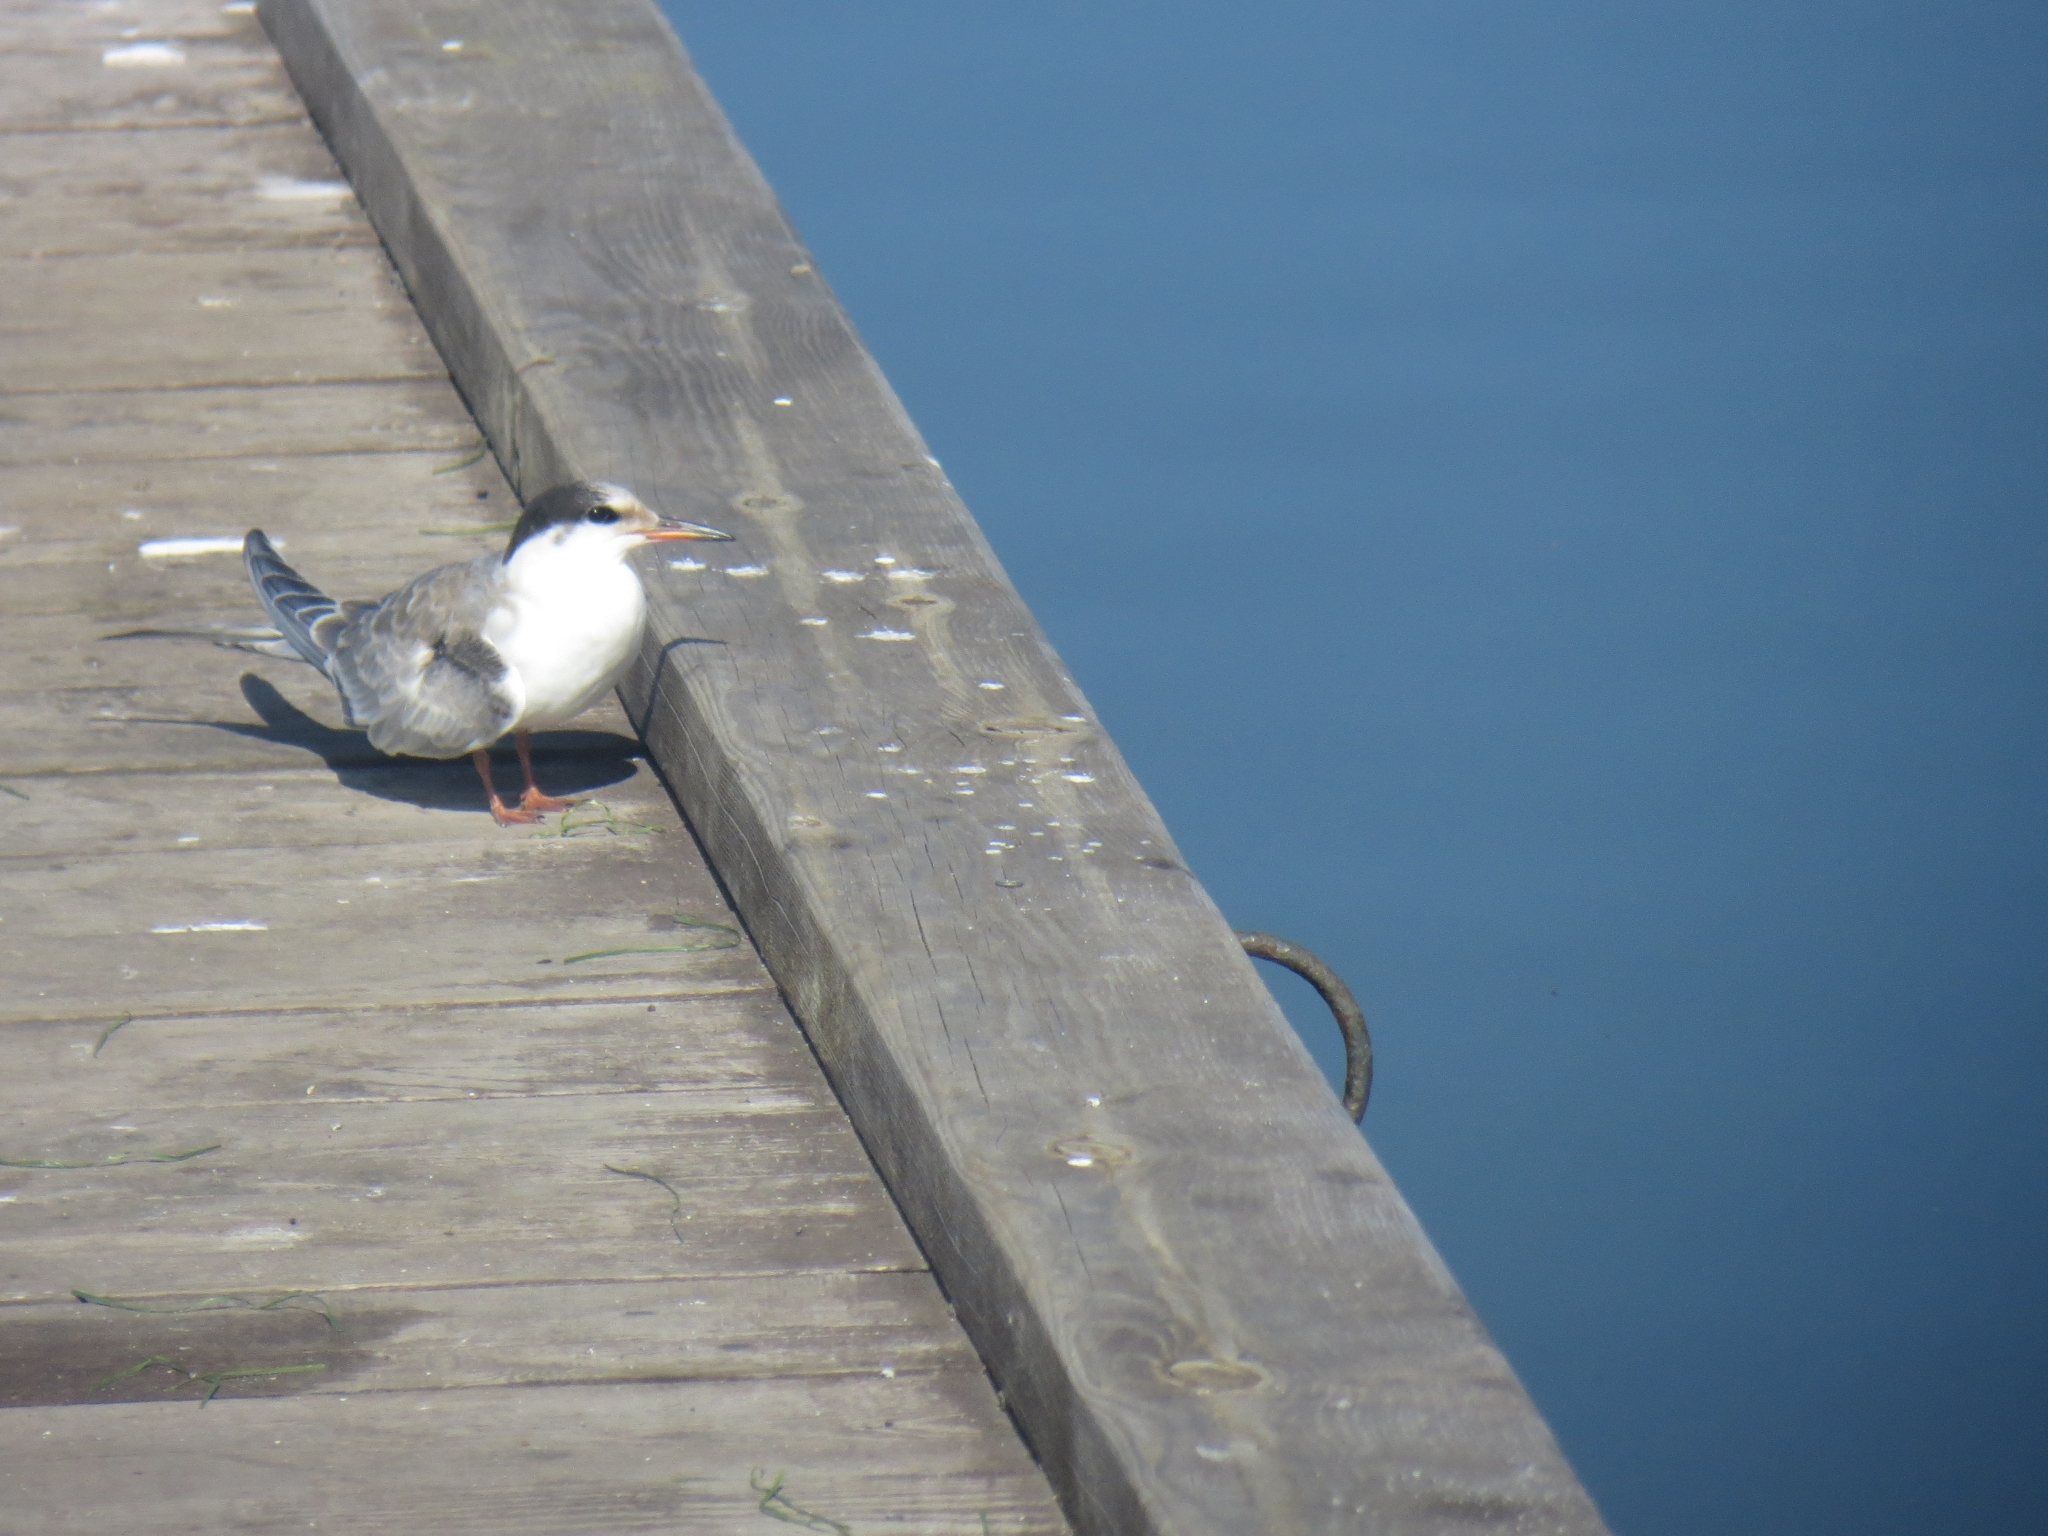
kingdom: Animalia
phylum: Chordata
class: Aves
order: Charadriiformes
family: Laridae
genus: Sterna
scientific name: Sterna hirundo
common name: Common tern
